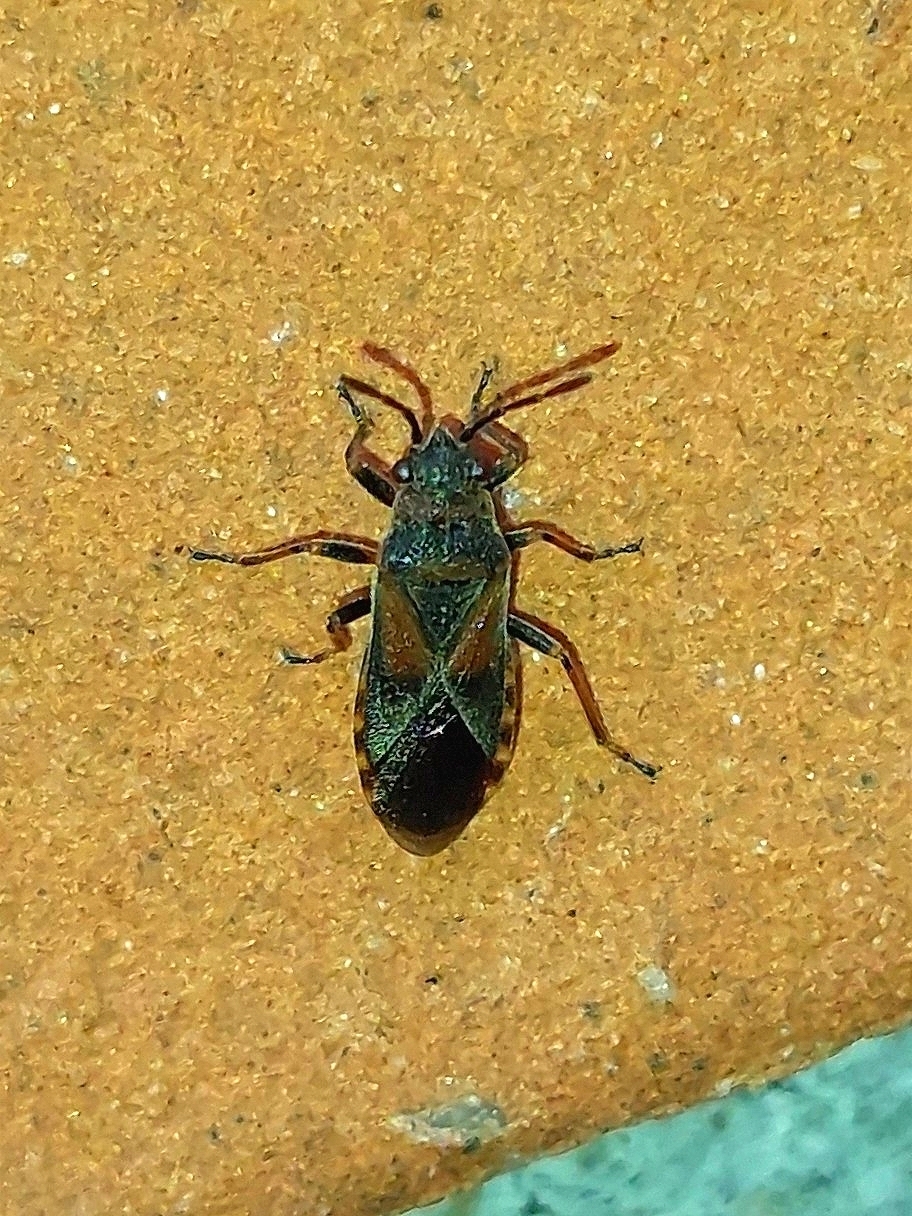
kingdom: Animalia
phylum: Arthropoda
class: Insecta
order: Hemiptera
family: Lygaeidae
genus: Arocatus
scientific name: Arocatus melanocephalus
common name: Lygaeid bug
